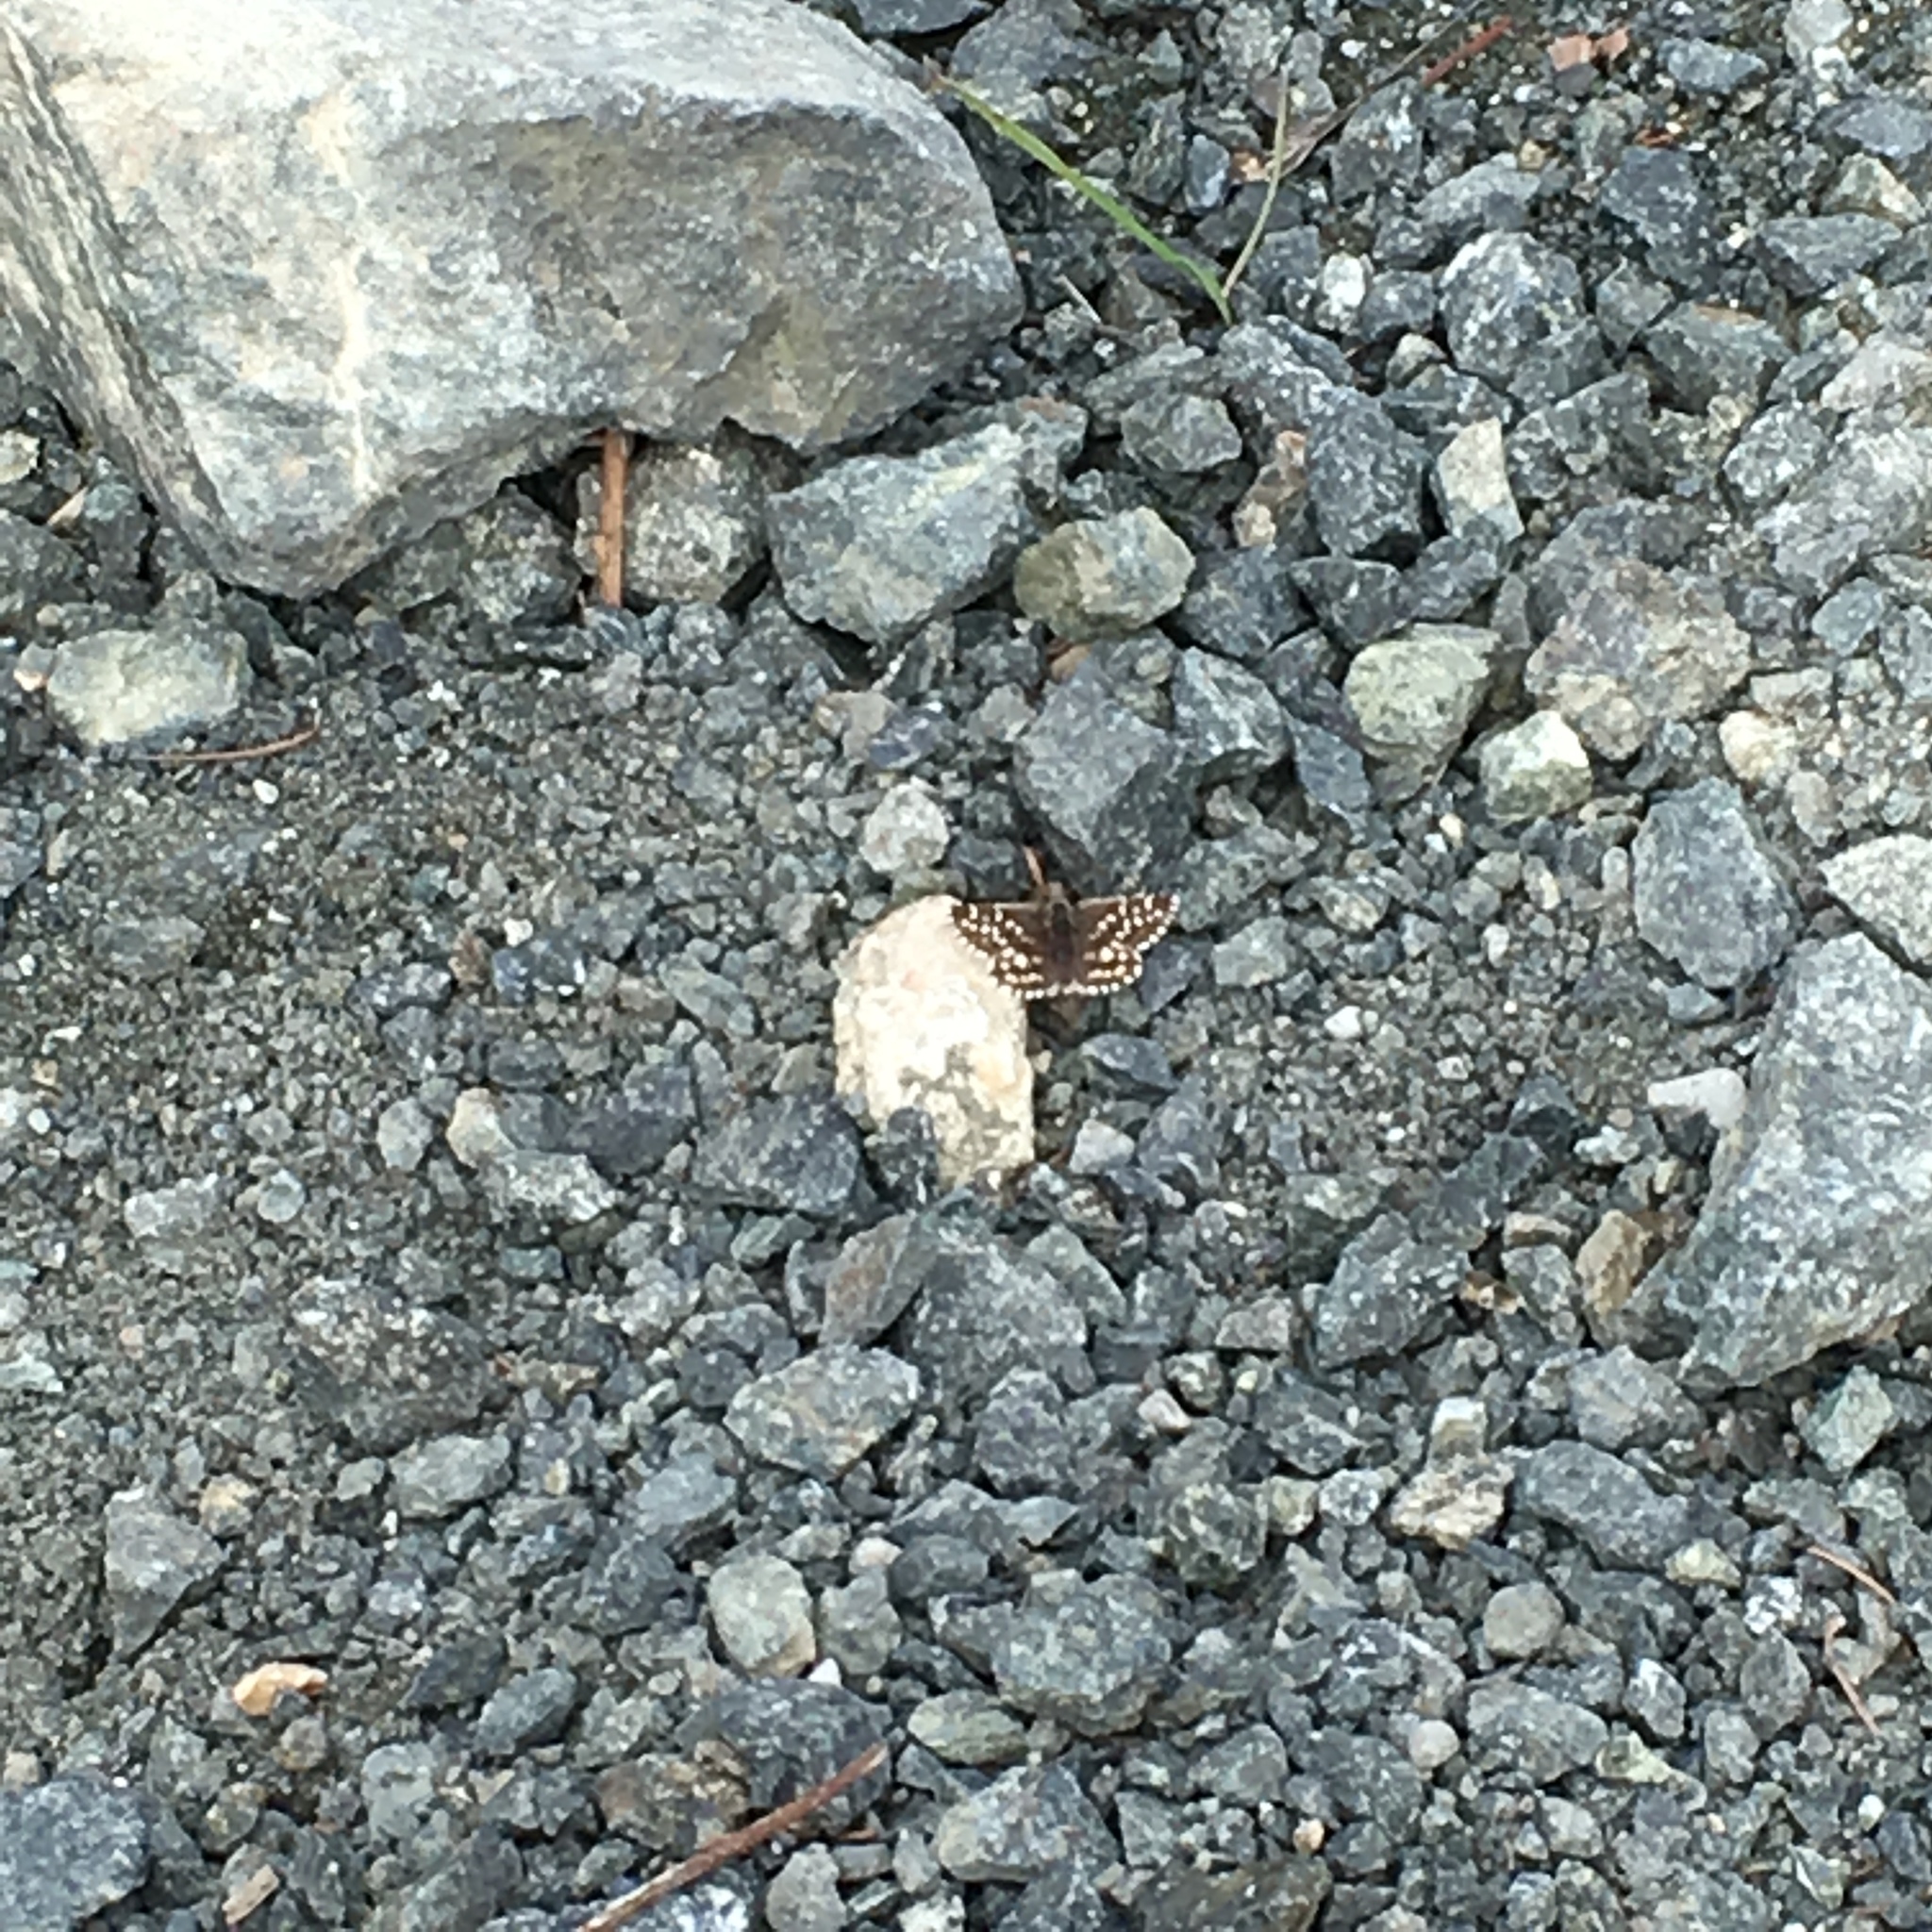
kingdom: Animalia
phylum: Arthropoda
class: Insecta
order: Lepidoptera
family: Hesperiidae
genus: Pyrgus
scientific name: Pyrgus ruralis
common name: Two-banded checkered-skipper
